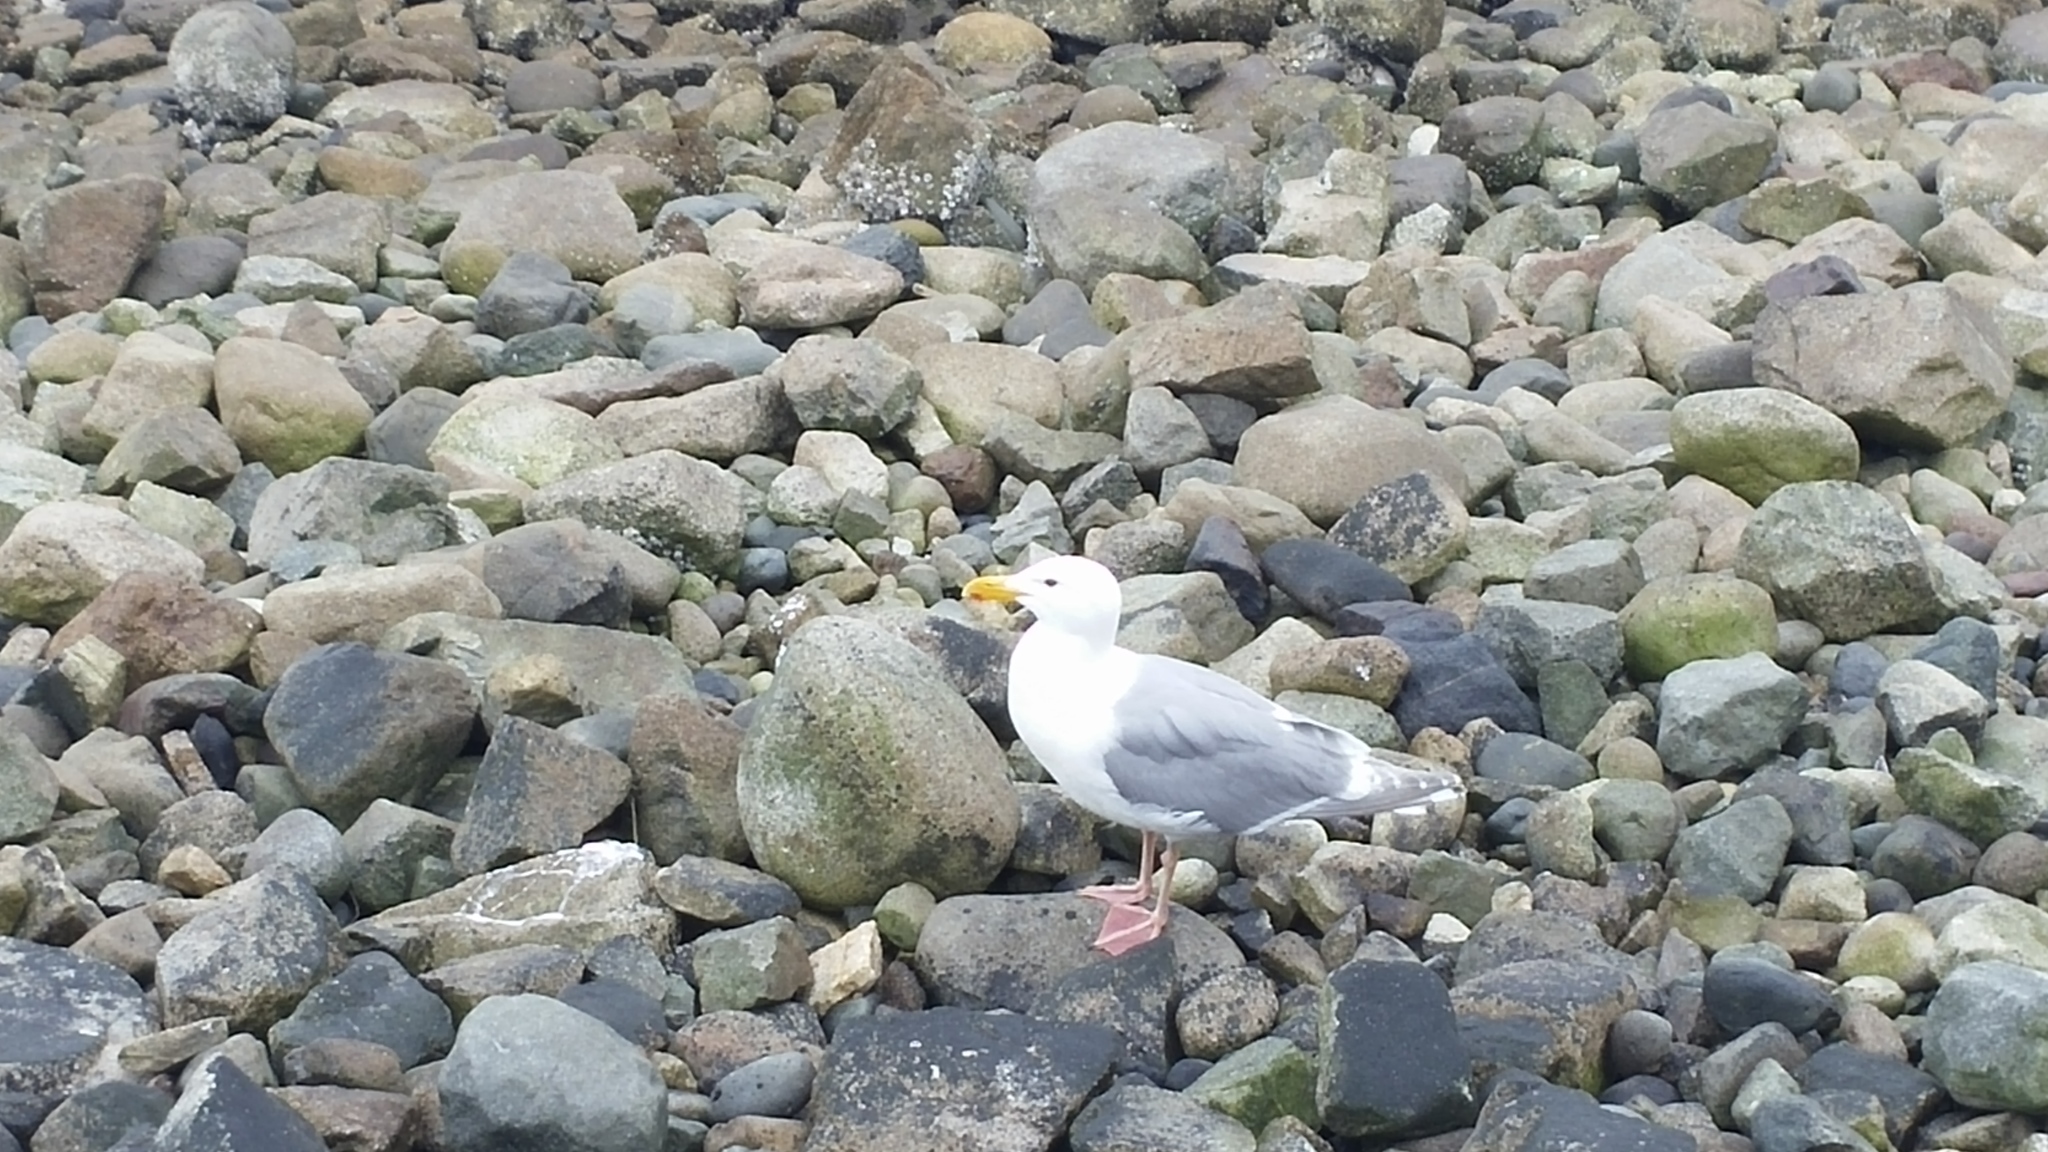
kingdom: Animalia
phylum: Chordata
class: Aves
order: Charadriiformes
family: Laridae
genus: Larus
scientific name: Larus glaucescens
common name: Glaucous-winged gull
